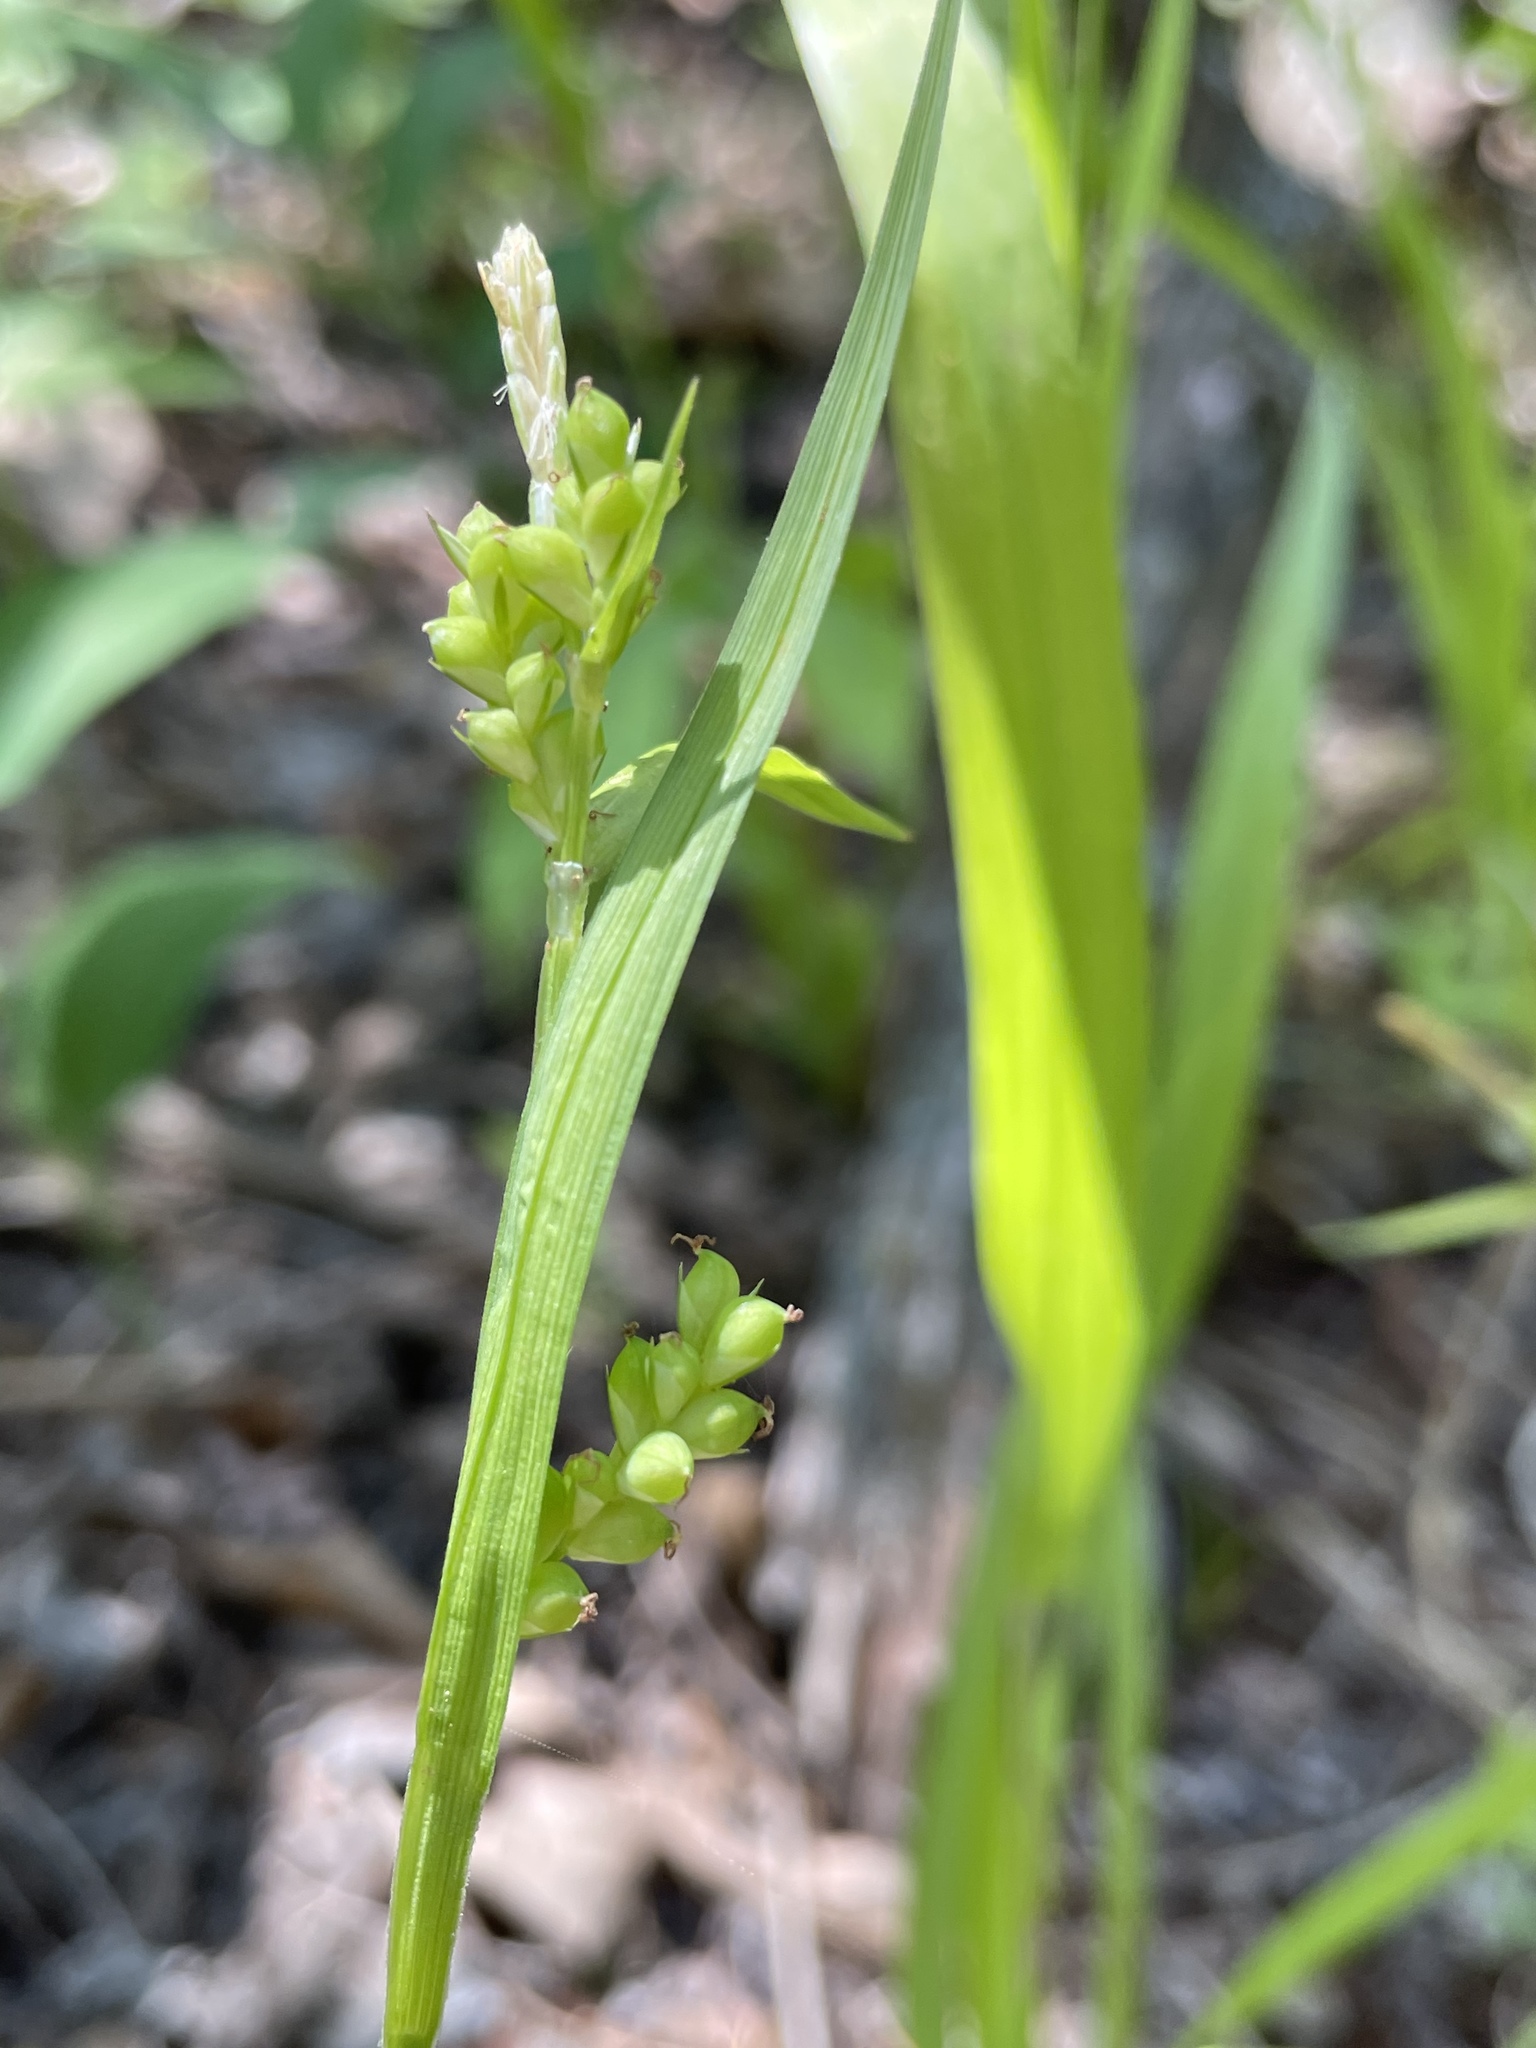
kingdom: Plantae
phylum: Tracheophyta
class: Liliopsida
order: Poales
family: Cyperaceae
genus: Carex
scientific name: Carex blanda
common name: Bland sedge
